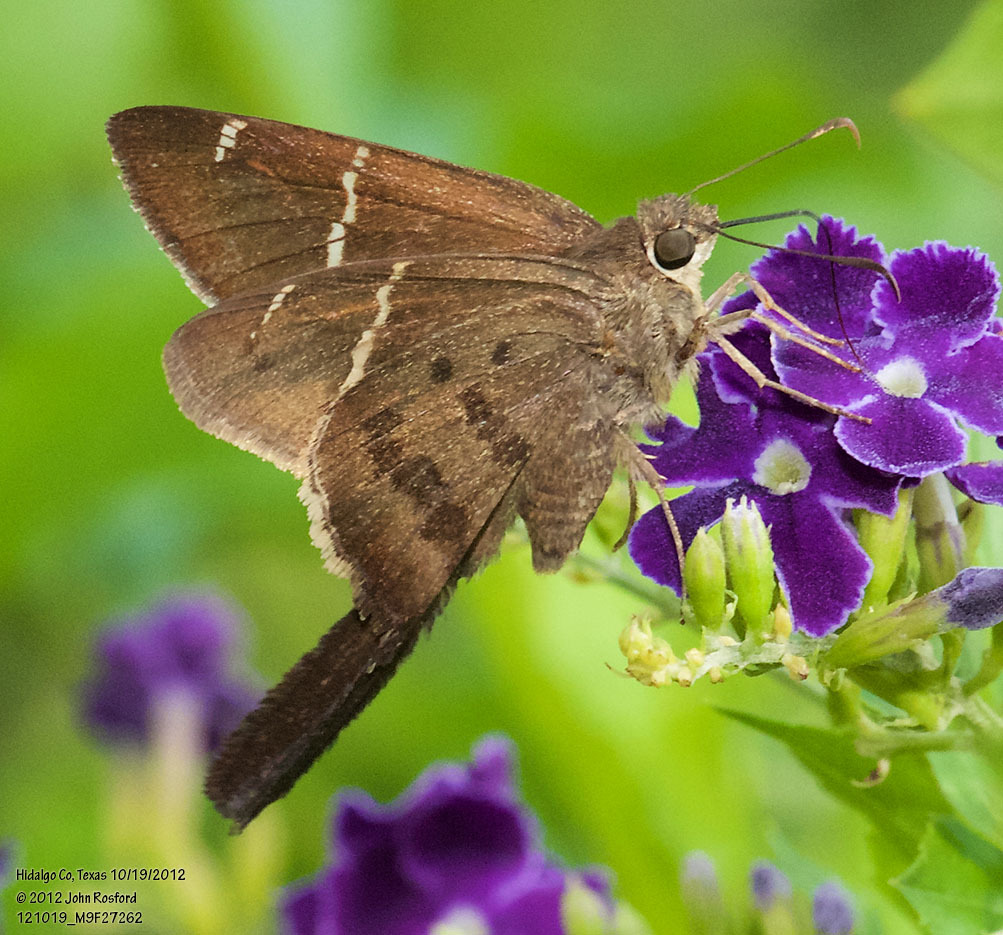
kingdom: Animalia
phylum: Arthropoda
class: Insecta
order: Lepidoptera
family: Hesperiidae
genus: Urbanus
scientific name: Urbanus procne
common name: Brown longtail
